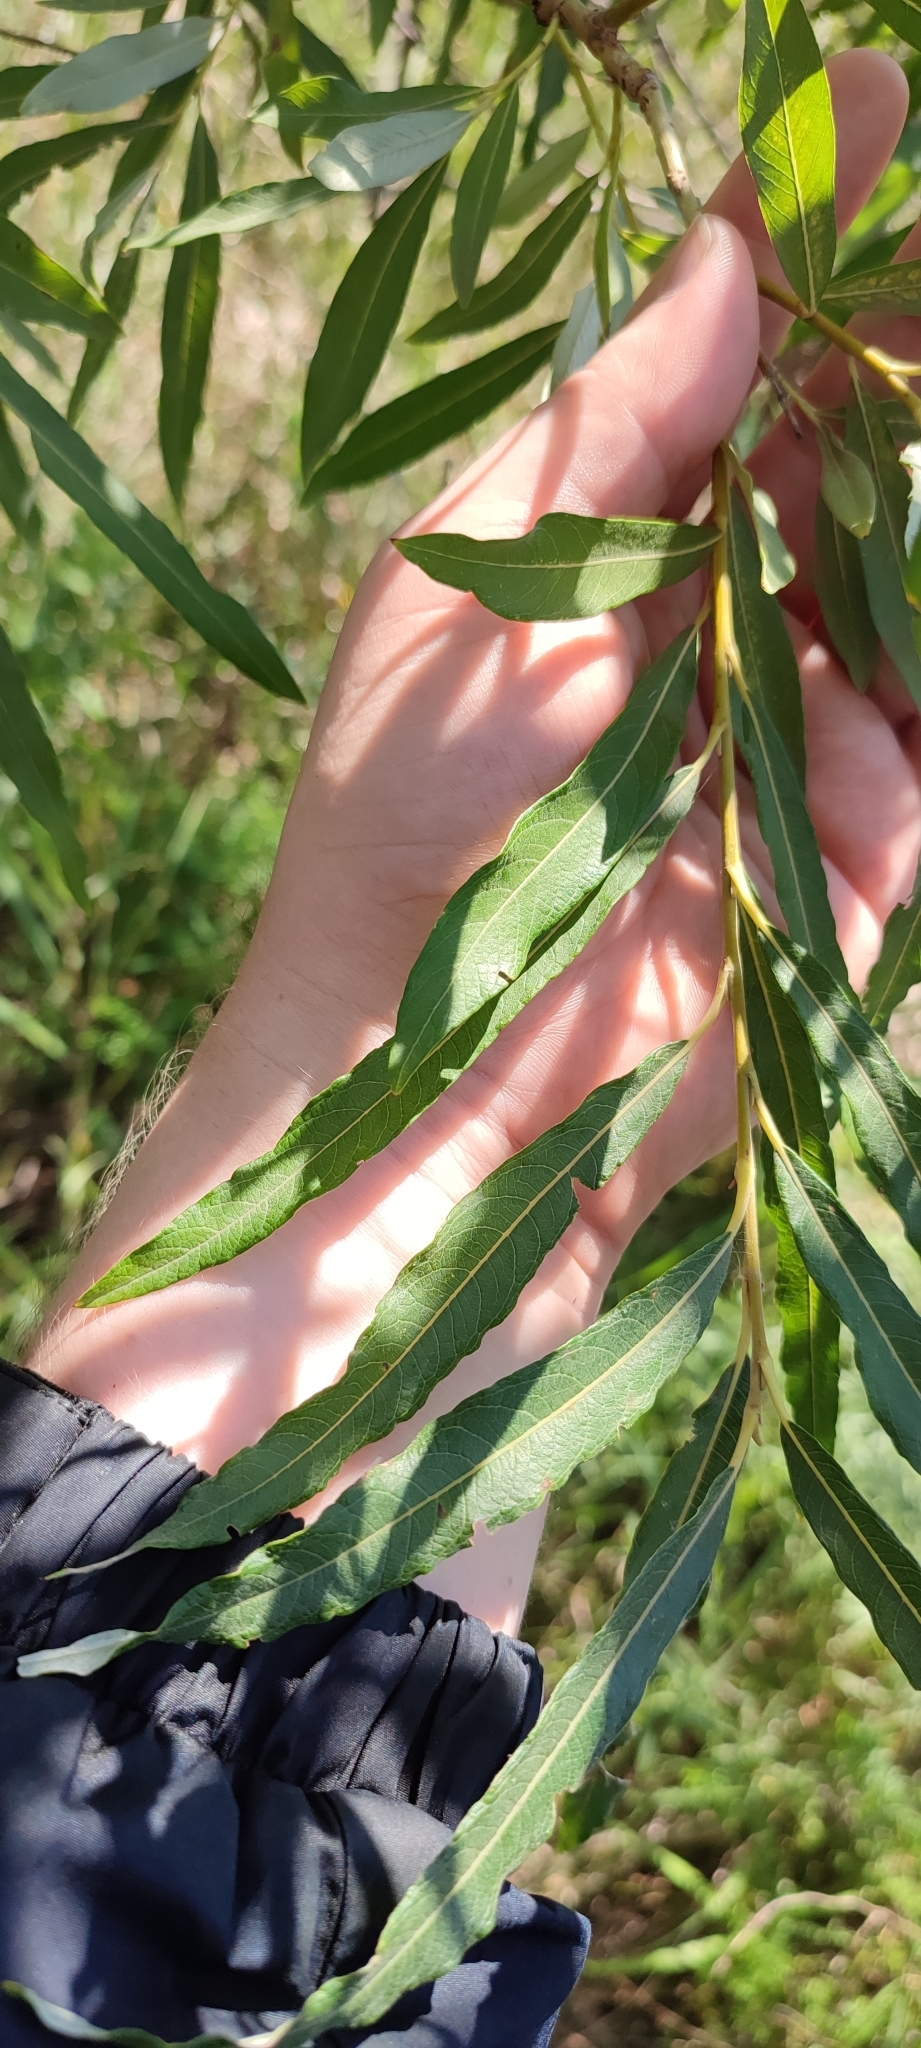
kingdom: Plantae
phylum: Tracheophyta
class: Magnoliopsida
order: Malpighiales
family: Salicaceae
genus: Salix
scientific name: Salix viminalis
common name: Osier
